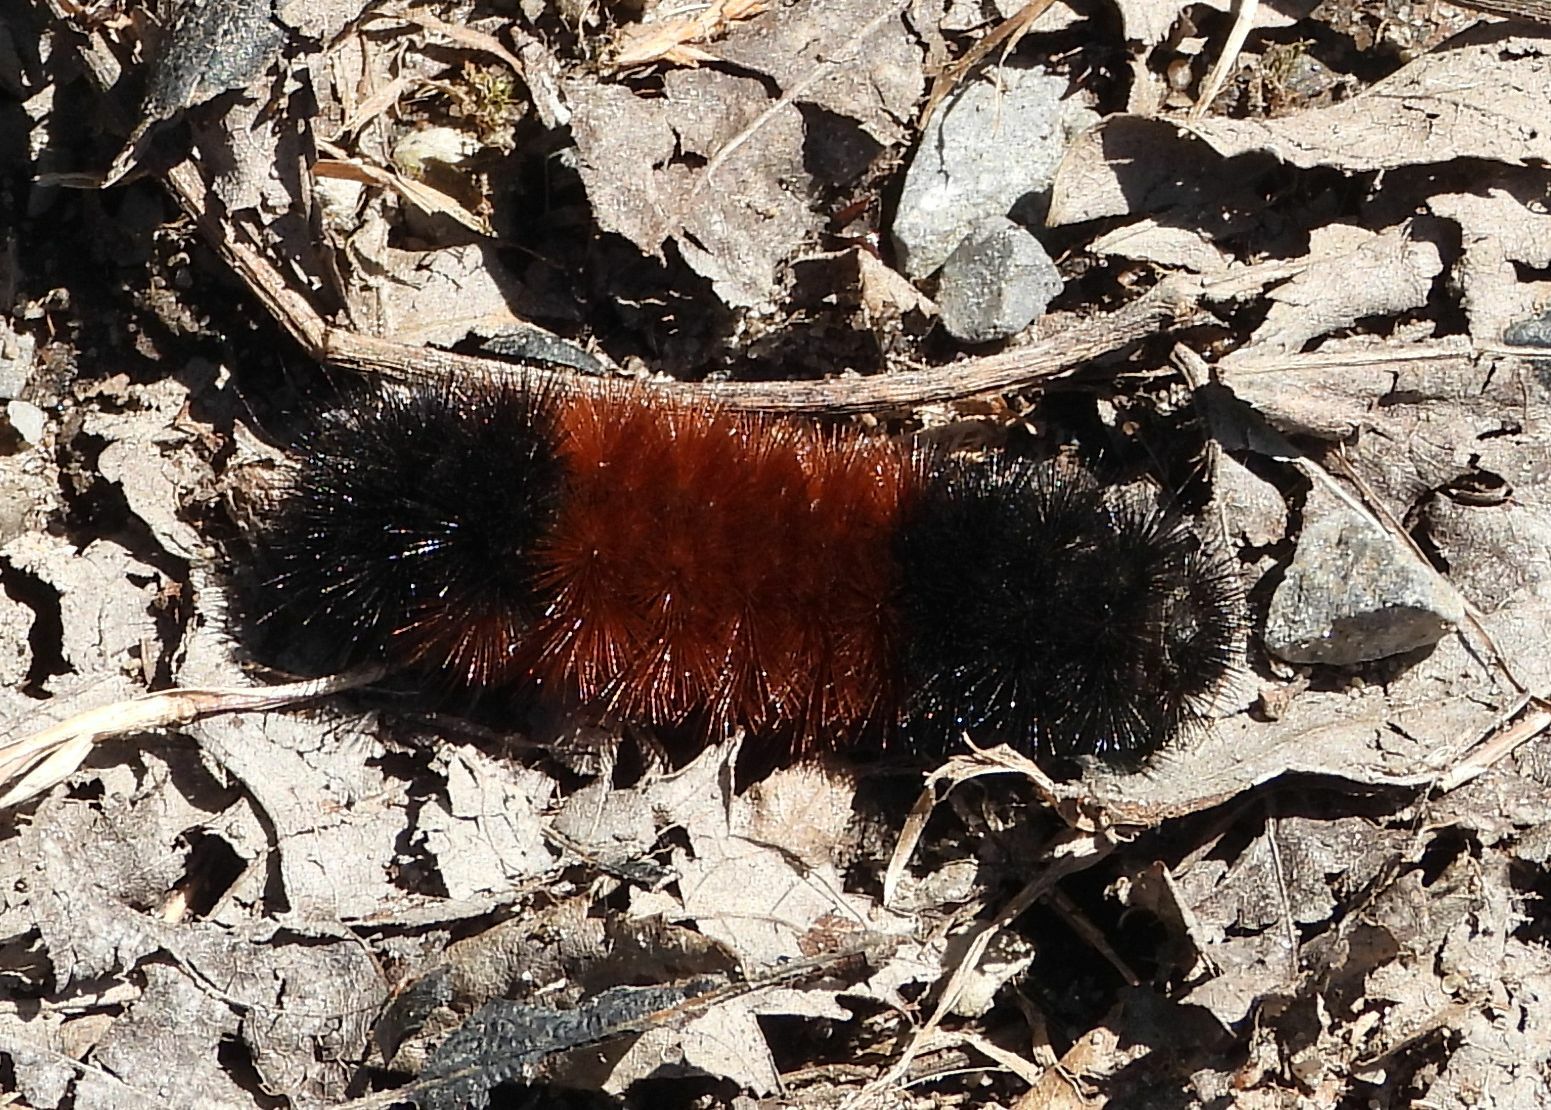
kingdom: Animalia
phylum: Arthropoda
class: Insecta
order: Lepidoptera
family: Erebidae
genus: Pyrrharctia
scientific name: Pyrrharctia isabella
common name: Isabella tiger moth
